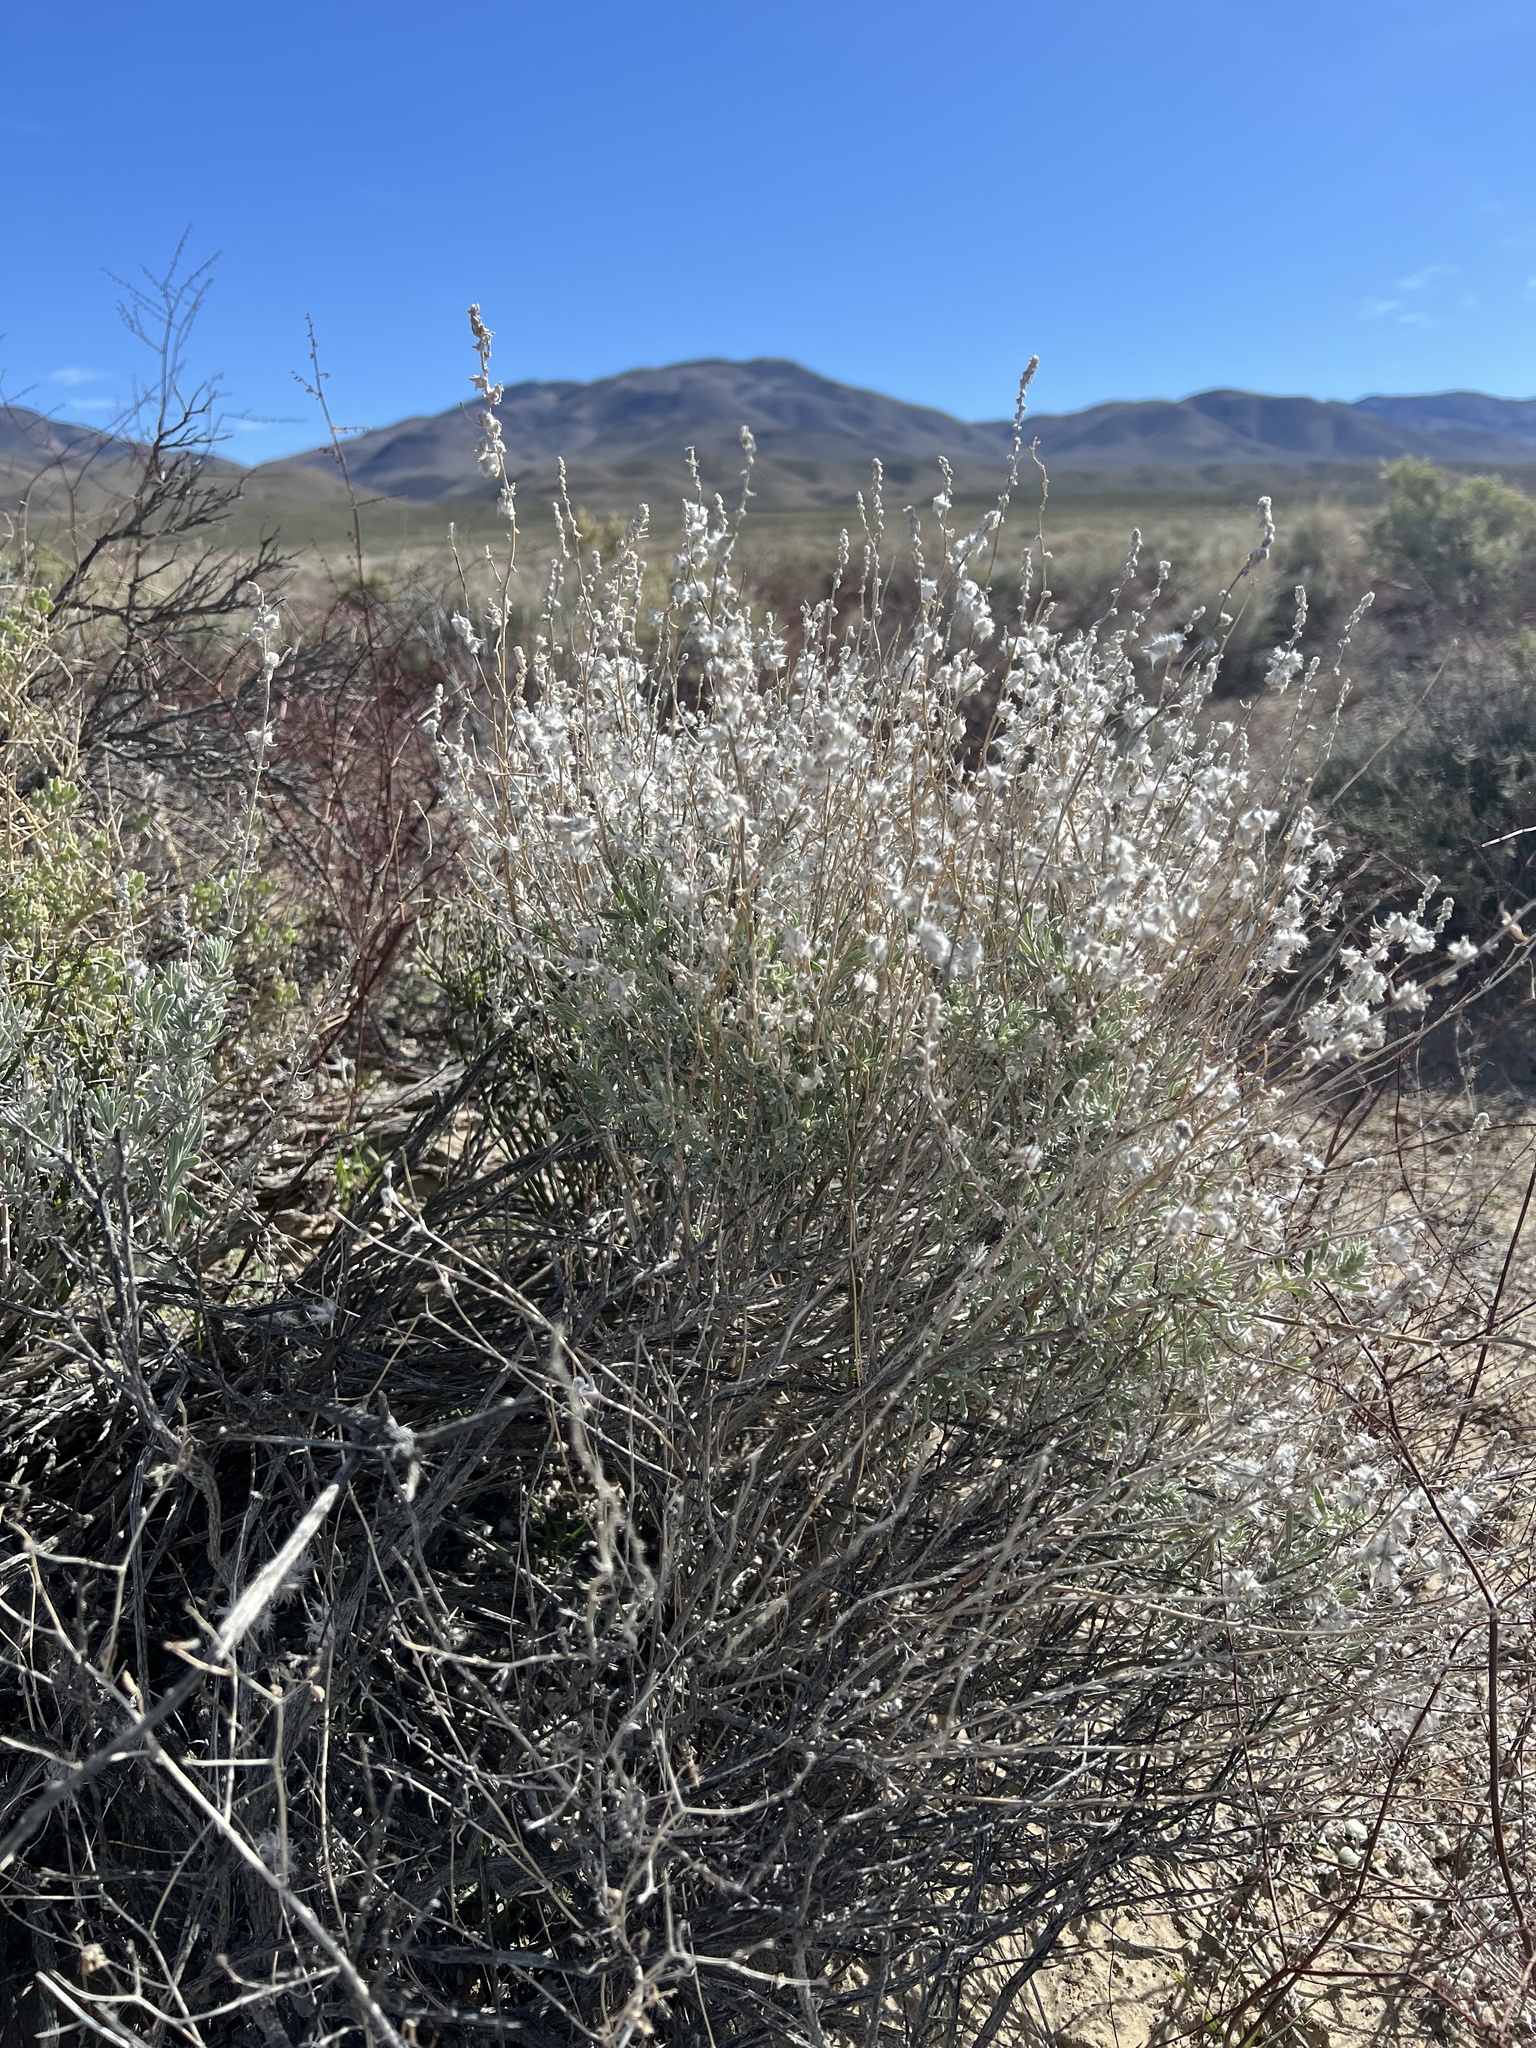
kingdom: Plantae
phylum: Tracheophyta
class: Magnoliopsida
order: Caryophyllales
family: Amaranthaceae
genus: Krascheninnikovia
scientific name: Krascheninnikovia lanata
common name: Winterfat
